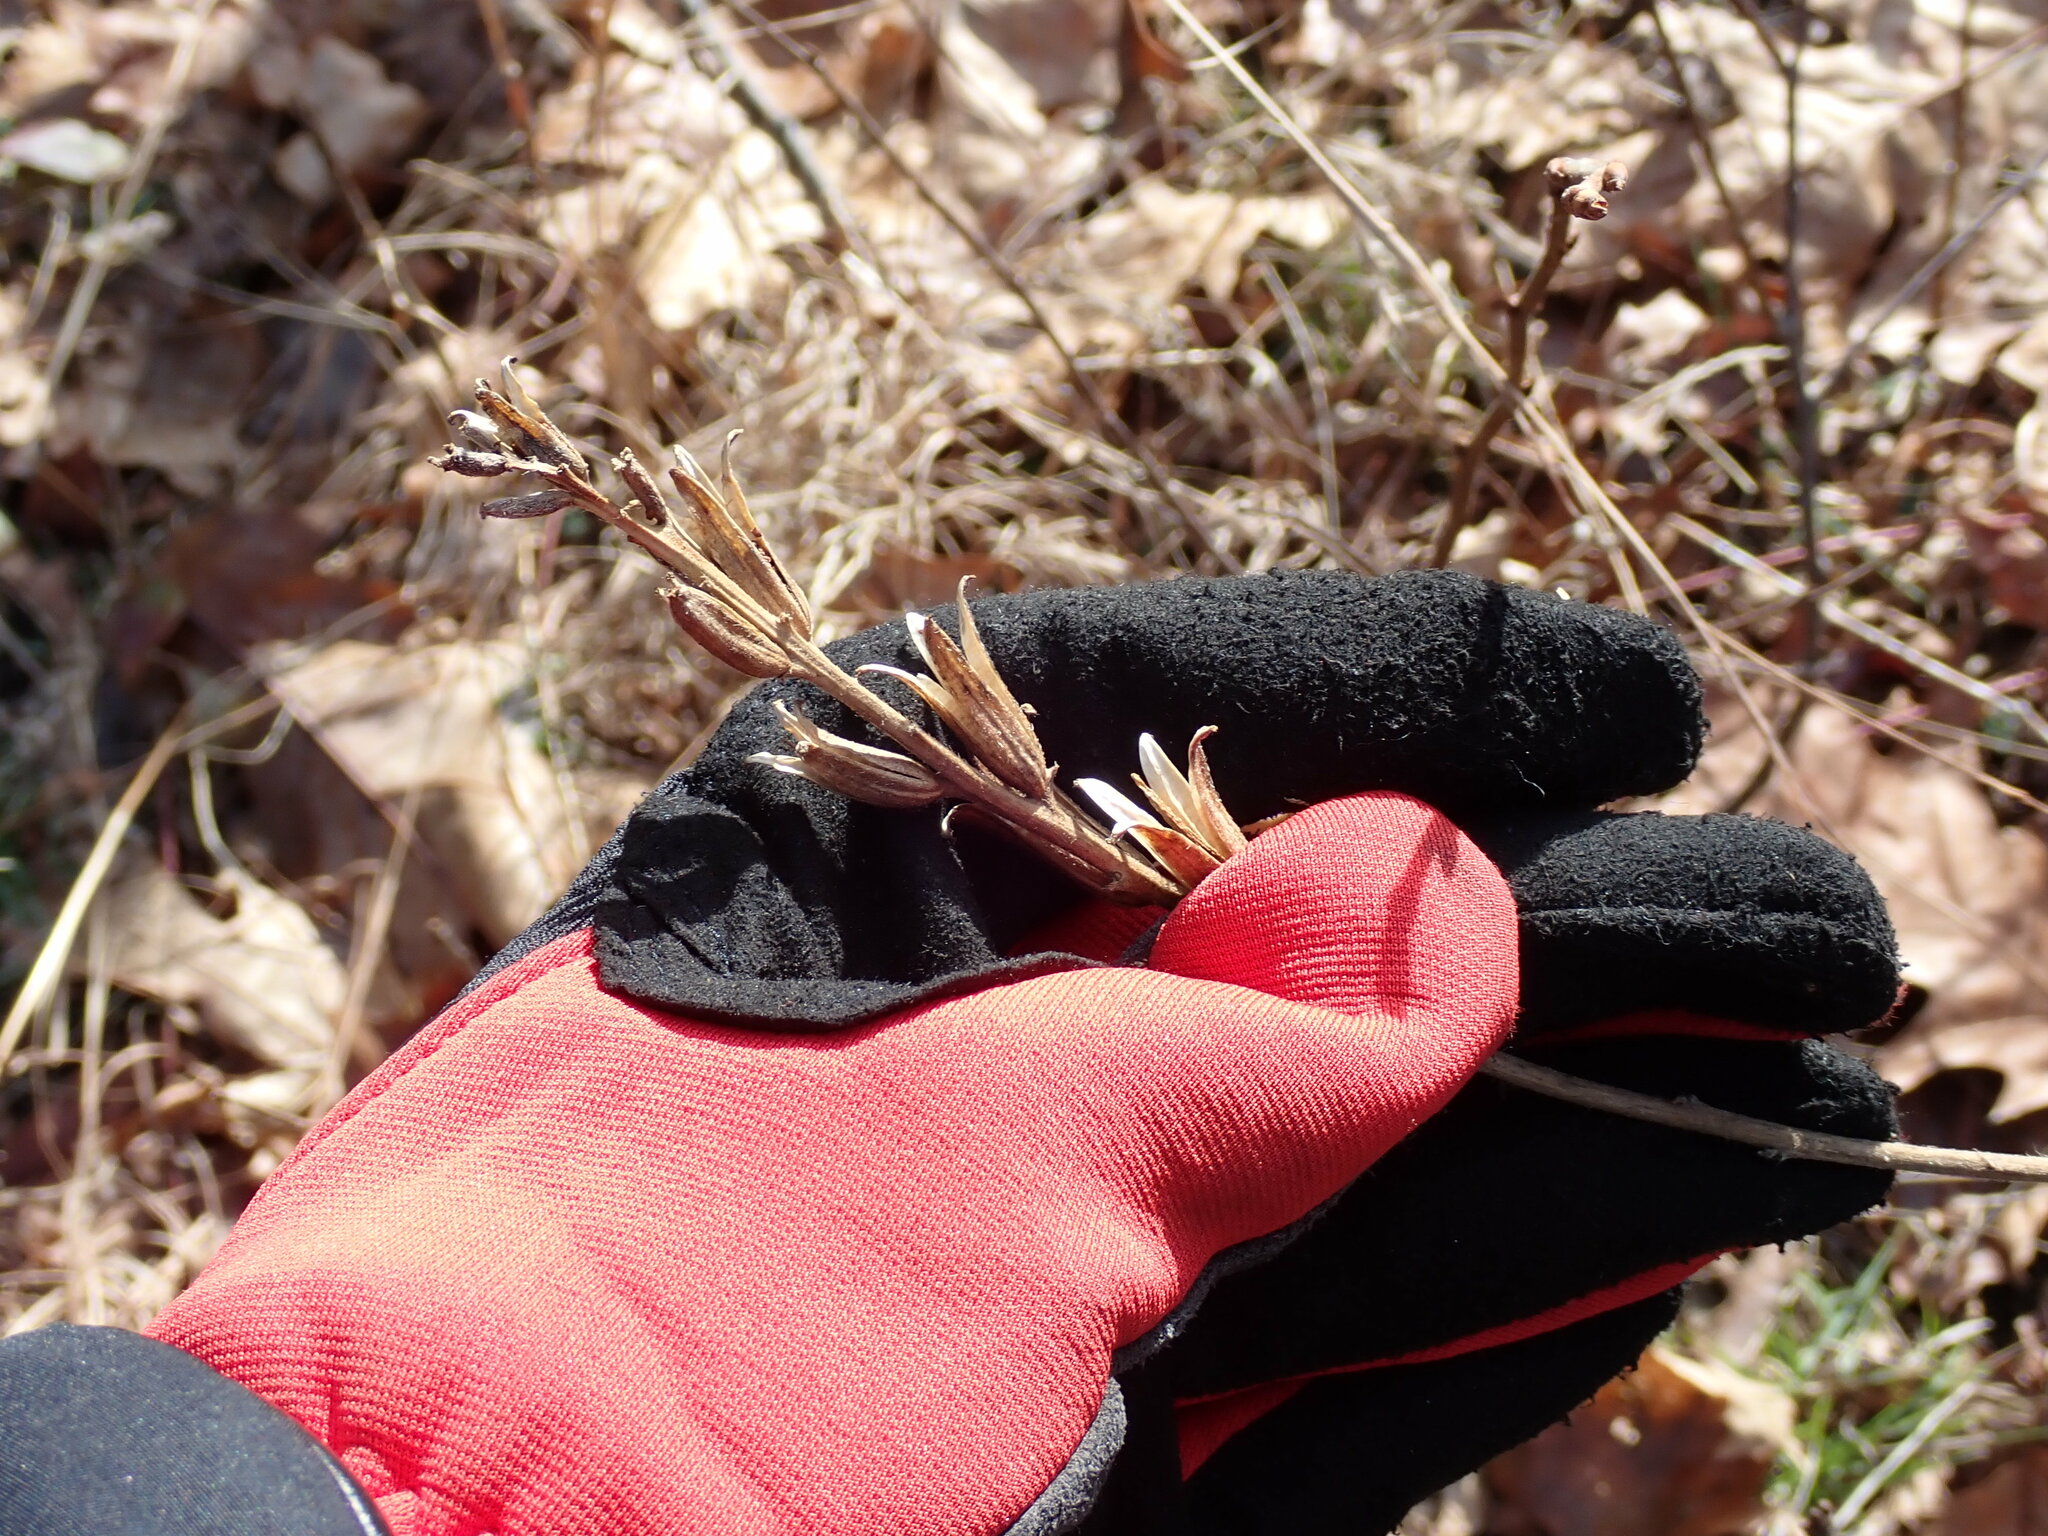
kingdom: Plantae
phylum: Tracheophyta
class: Magnoliopsida
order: Myrtales
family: Onagraceae
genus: Oenothera
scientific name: Oenothera biennis
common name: Common evening-primrose
